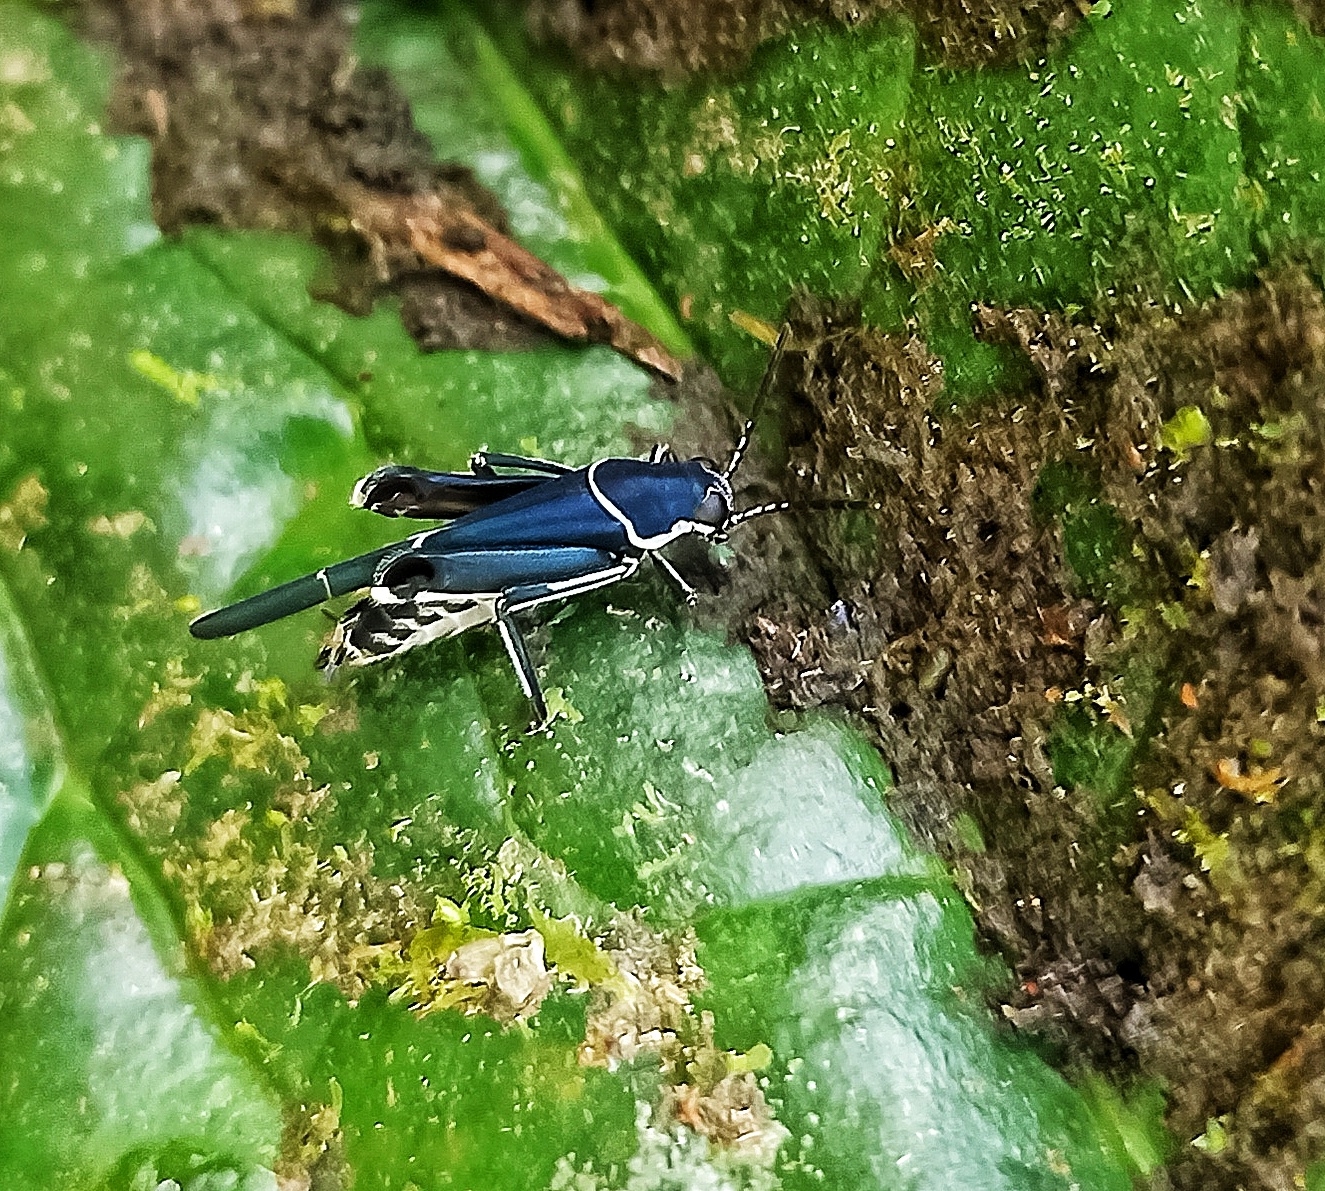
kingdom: Animalia
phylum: Arthropoda
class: Insecta
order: Orthoptera
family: Ripipterygidae
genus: Ripipteryx
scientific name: Ripipteryx limbata
